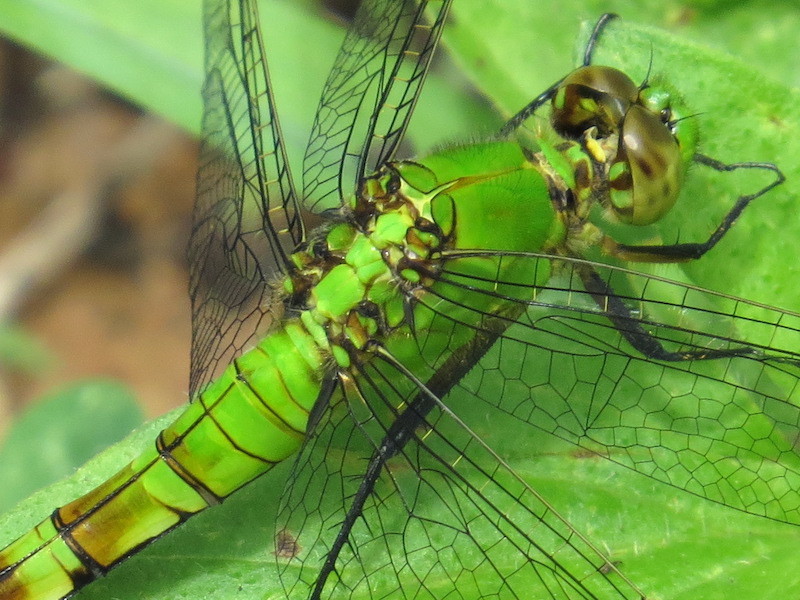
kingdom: Animalia
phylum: Arthropoda
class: Insecta
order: Odonata
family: Libellulidae
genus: Erythemis
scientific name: Erythemis simplicicollis
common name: Eastern pondhawk
